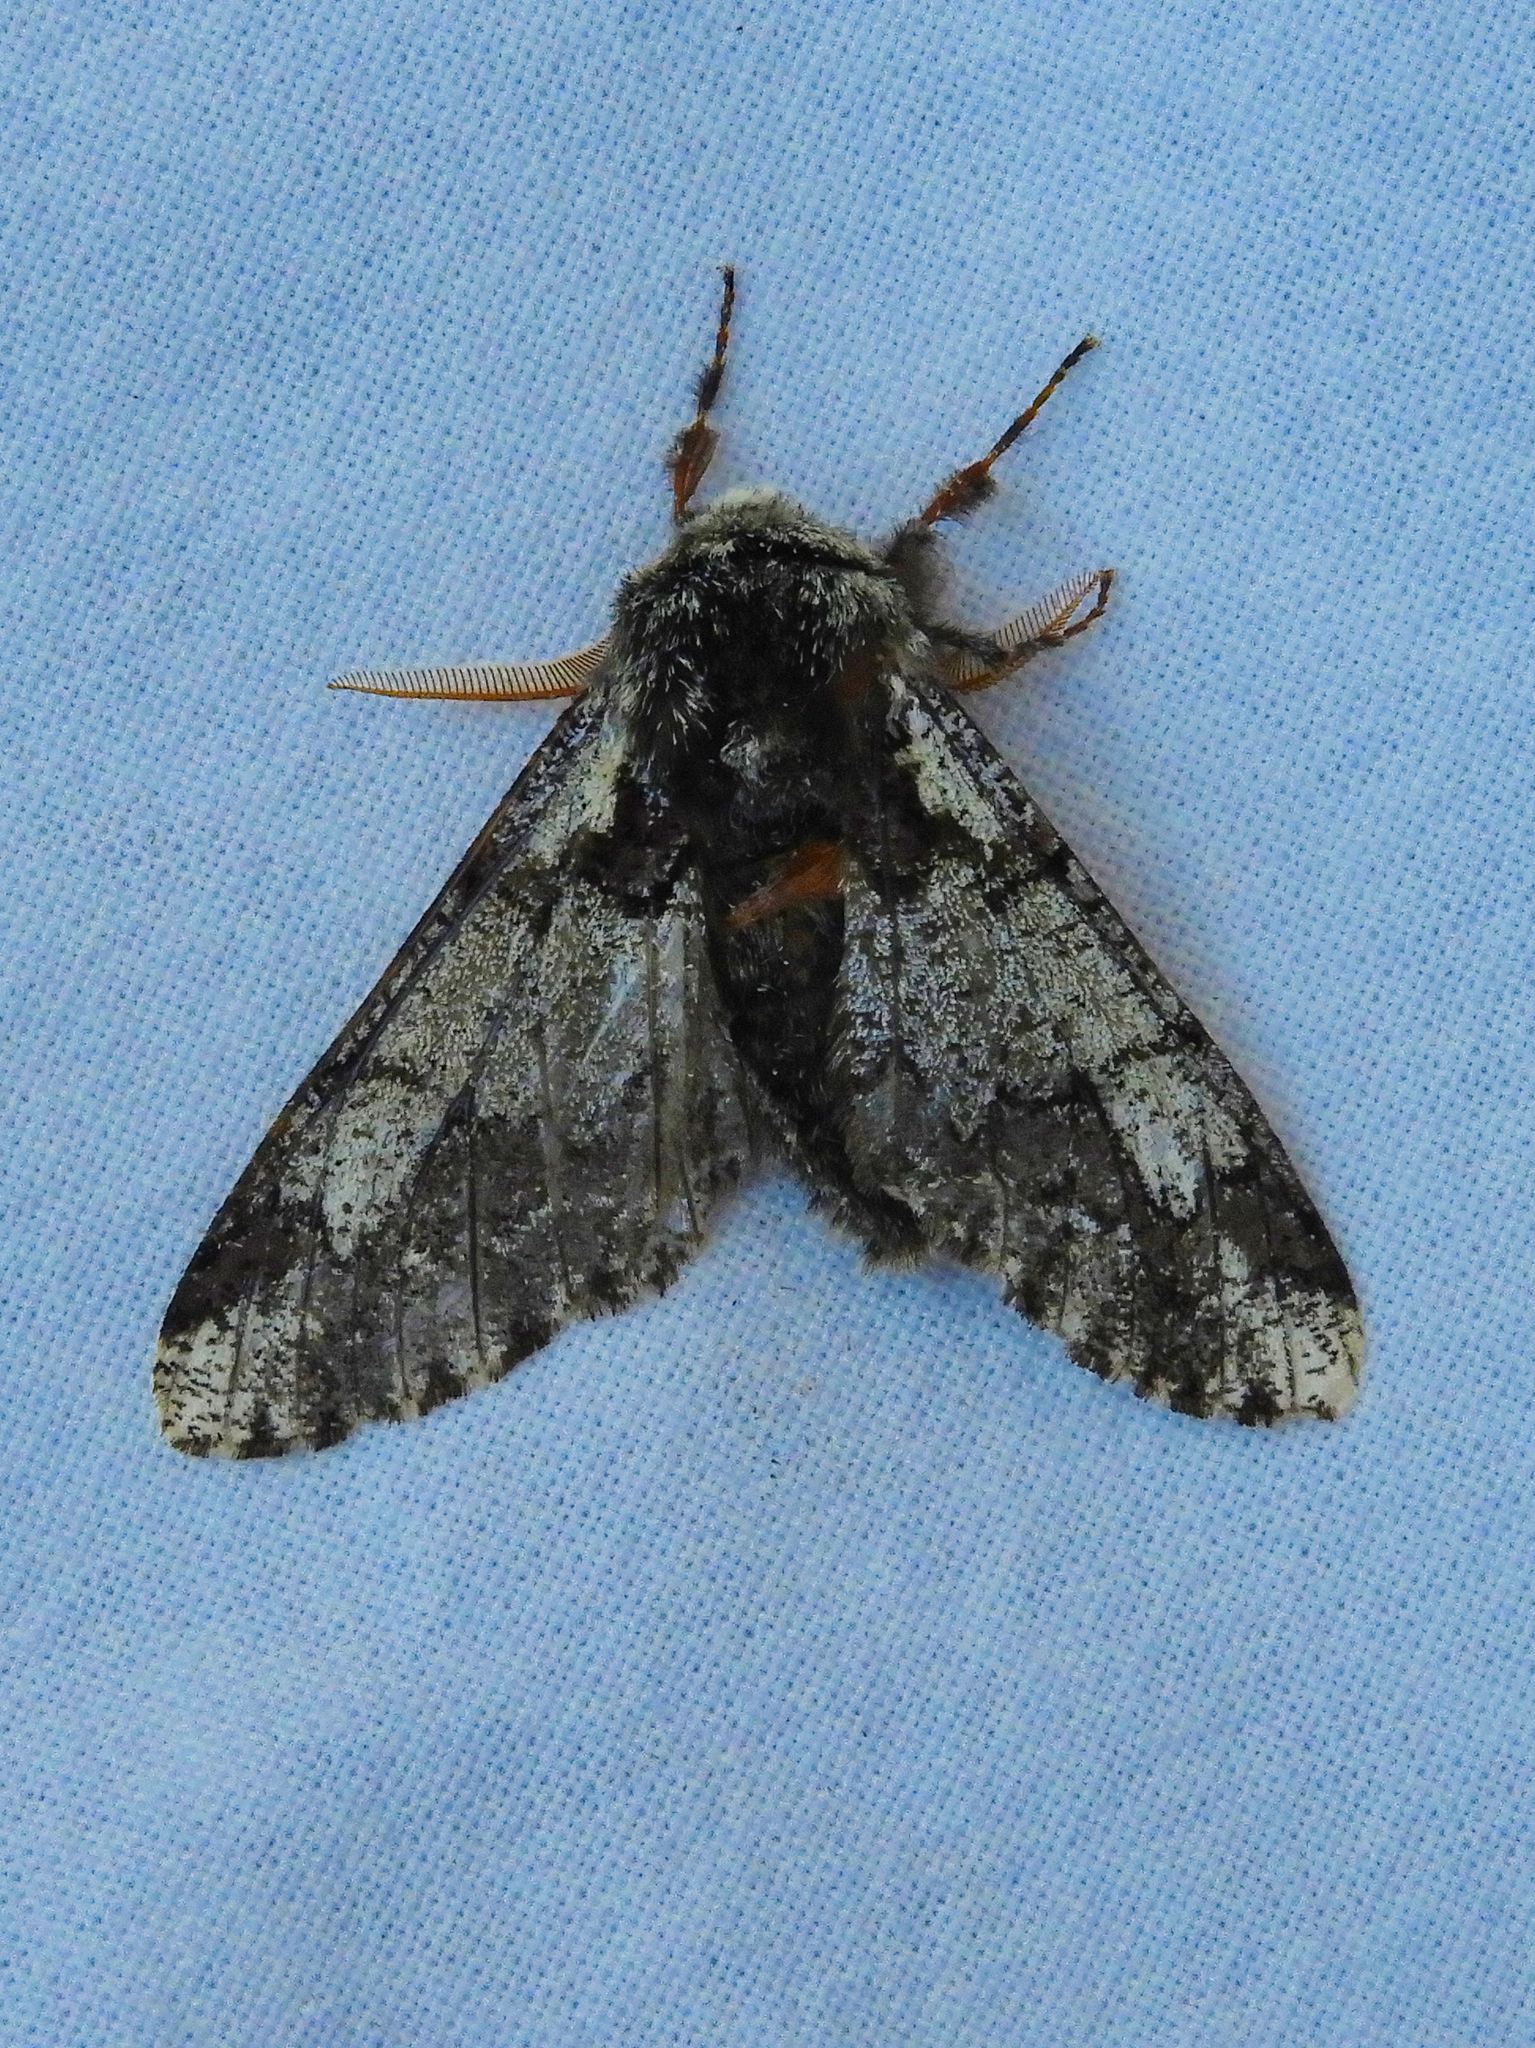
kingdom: Animalia
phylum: Arthropoda
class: Insecta
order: Lepidoptera
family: Geometridae
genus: Biston
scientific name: Biston strataria
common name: Oak beauty
